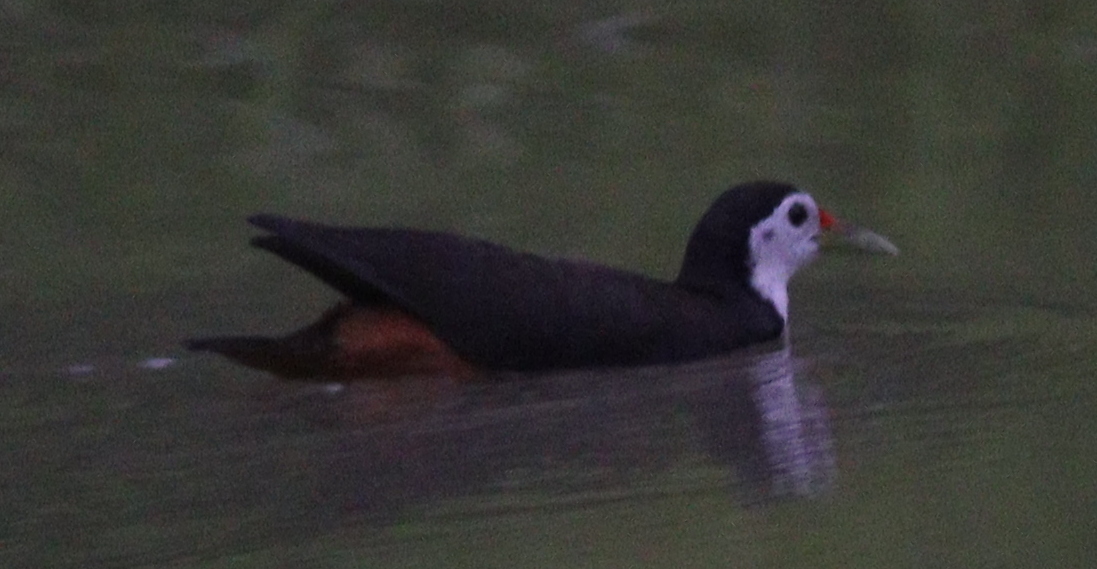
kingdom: Animalia
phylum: Chordata
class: Aves
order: Gruiformes
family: Rallidae
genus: Amaurornis
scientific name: Amaurornis phoenicurus
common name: White-breasted waterhen
